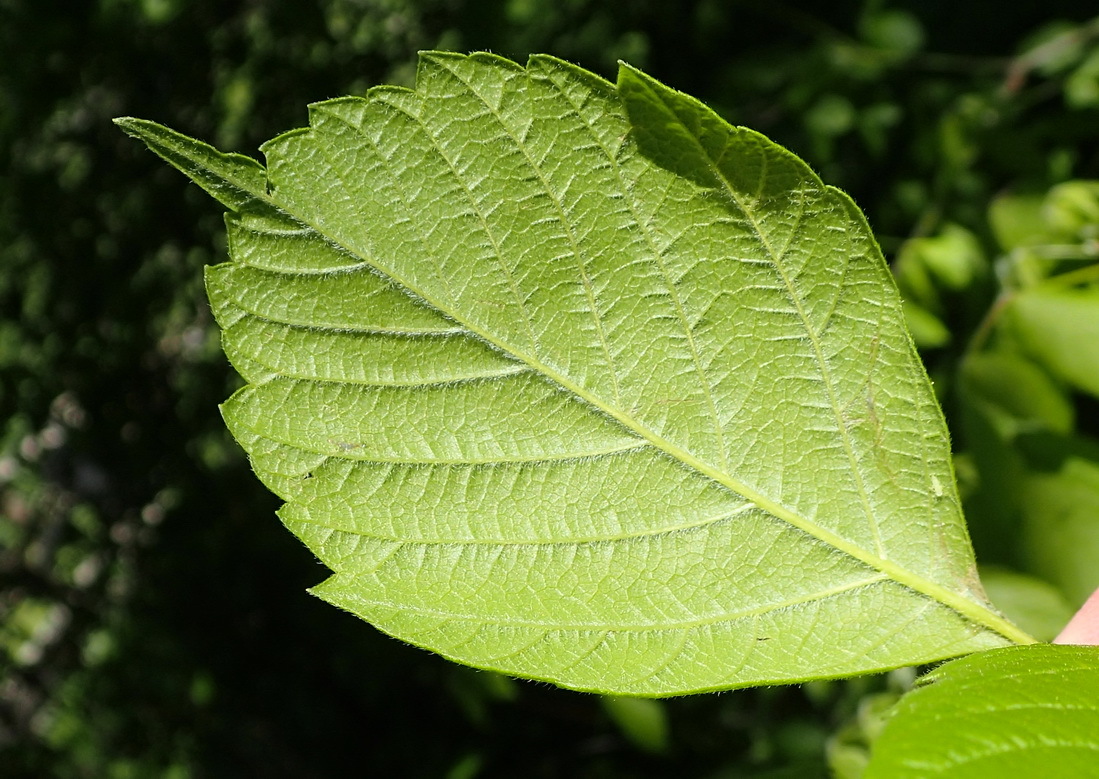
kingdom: Plantae
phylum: Tracheophyta
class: Magnoliopsida
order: Sapindales
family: Sapindaceae
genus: Acer
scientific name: Acer negundo
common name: Ashleaf maple
